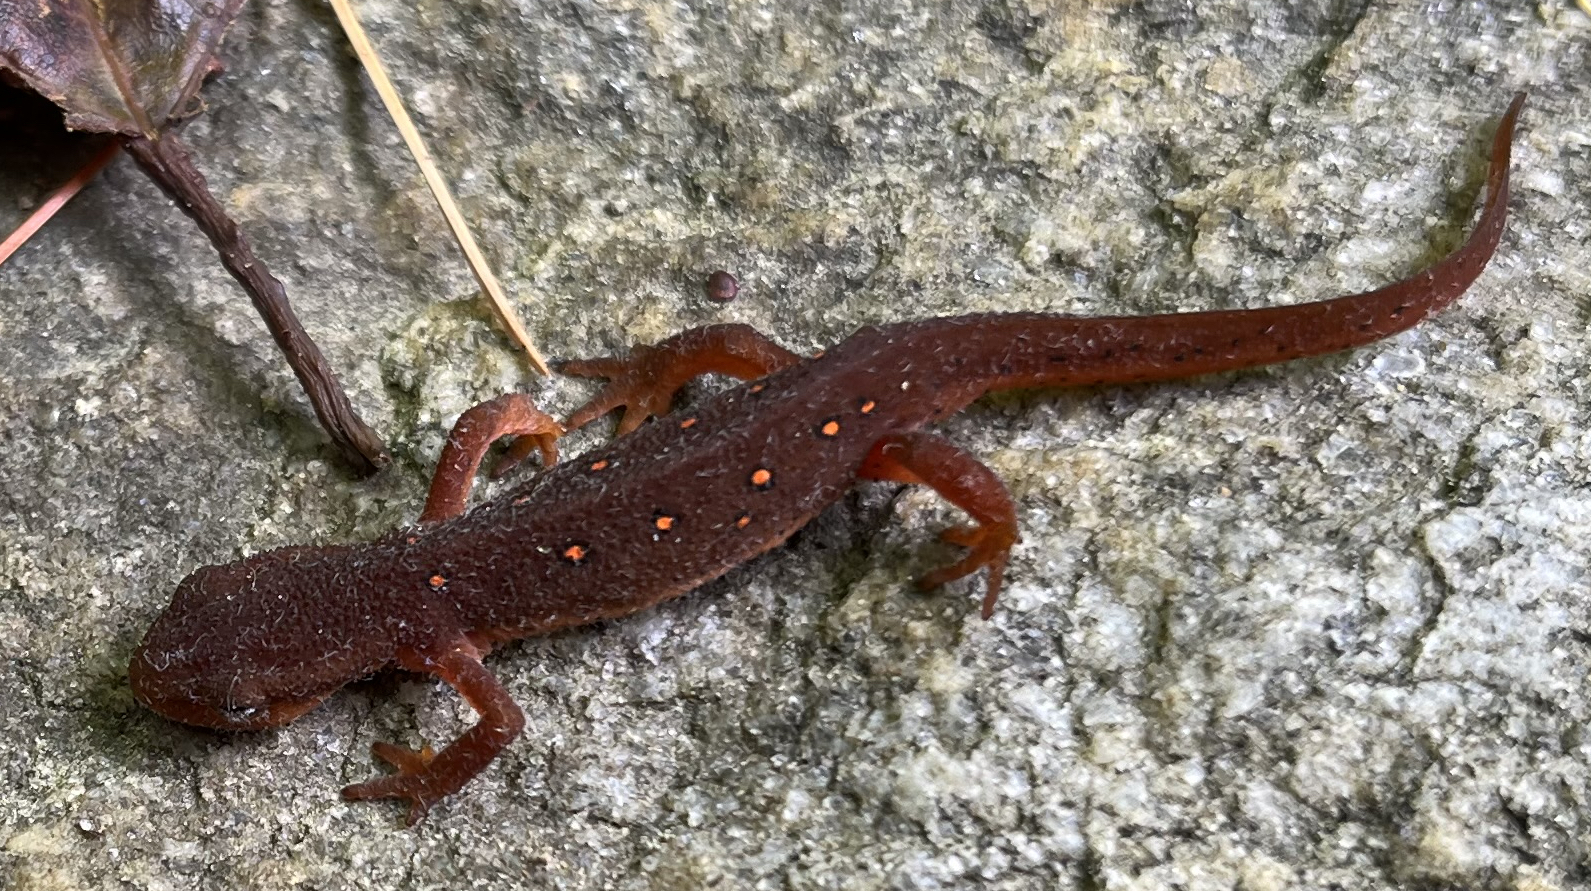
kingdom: Animalia
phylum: Chordata
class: Amphibia
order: Caudata
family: Salamandridae
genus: Notophthalmus
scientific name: Notophthalmus viridescens
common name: Eastern newt
